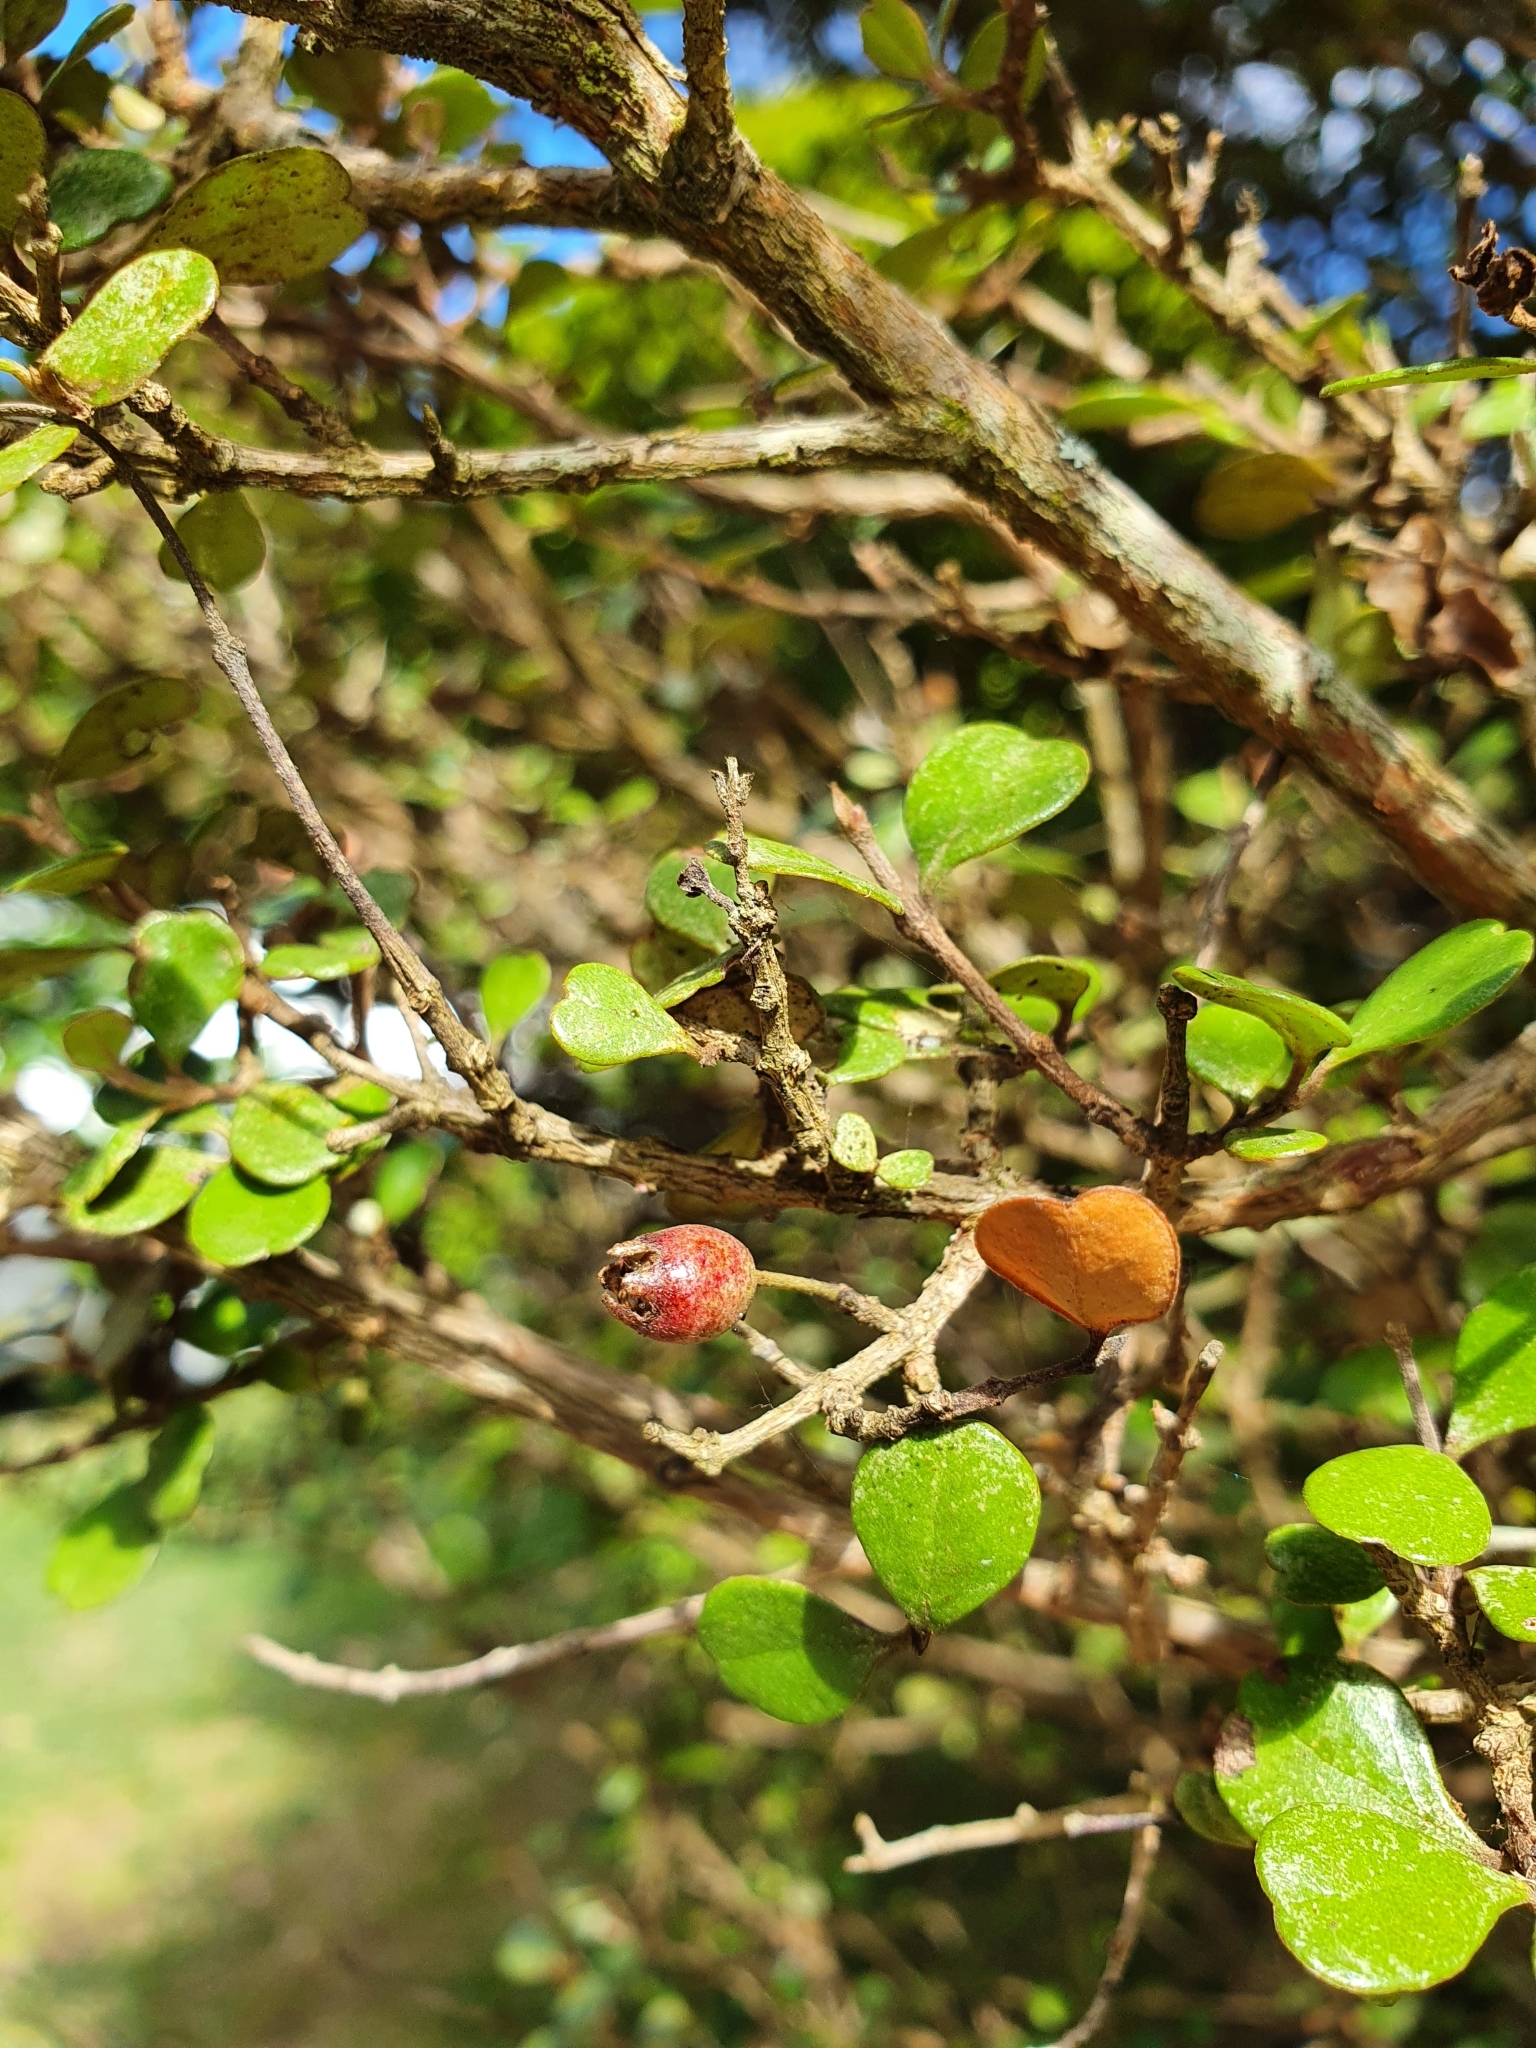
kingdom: Plantae
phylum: Tracheophyta
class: Magnoliopsida
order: Myrtales
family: Myrtaceae
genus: Lophomyrtus
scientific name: Lophomyrtus obcordata
